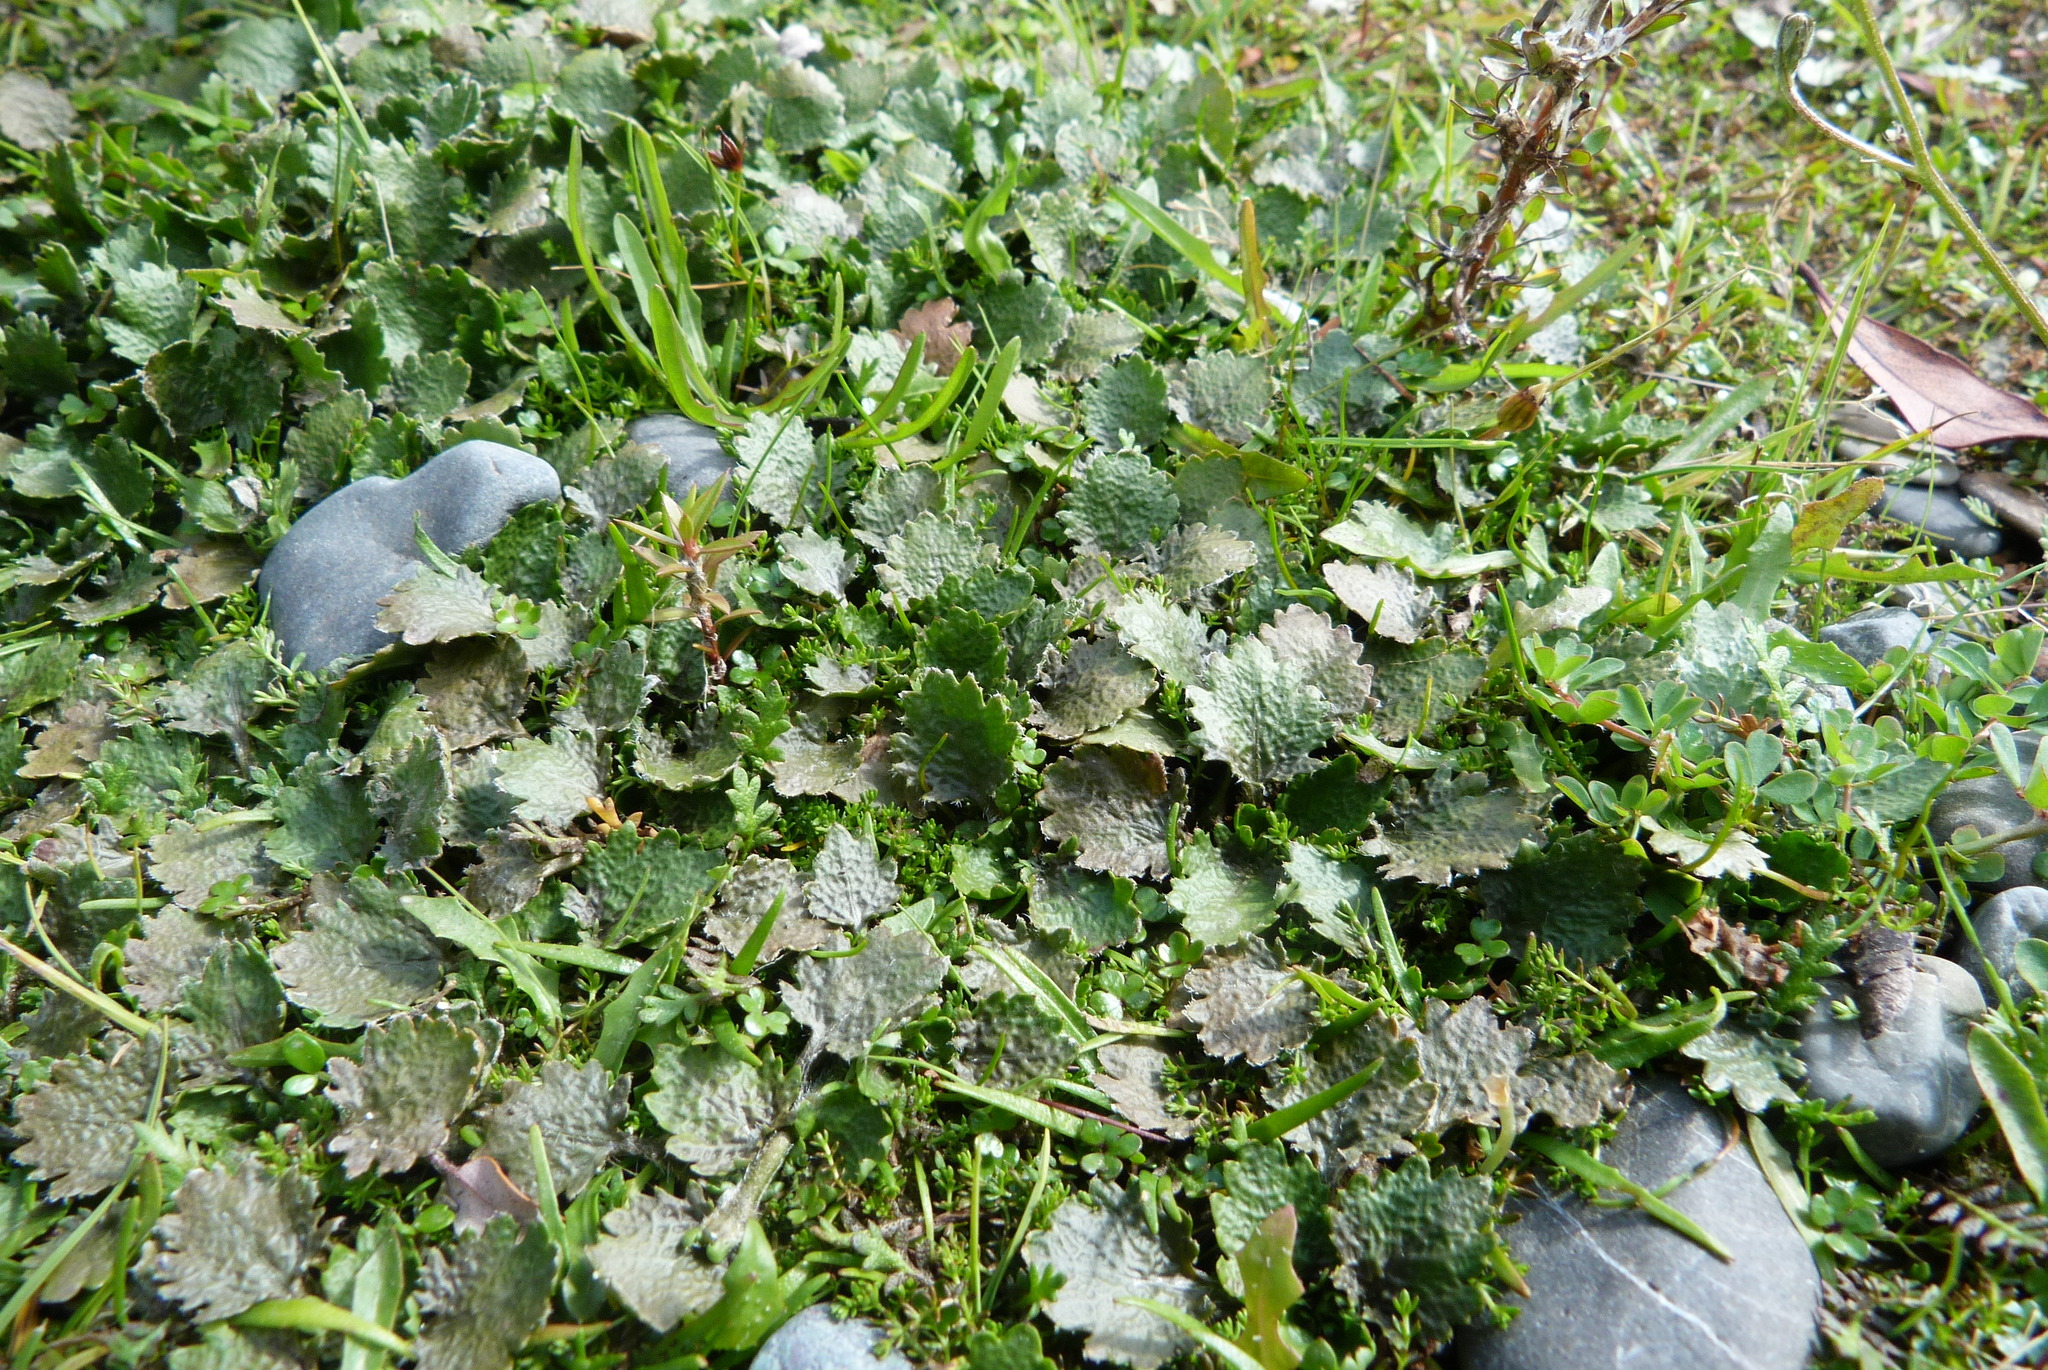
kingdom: Plantae
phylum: Tracheophyta
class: Magnoliopsida
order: Gunnerales
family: Gunneraceae
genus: Gunnera
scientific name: Gunnera dentata
